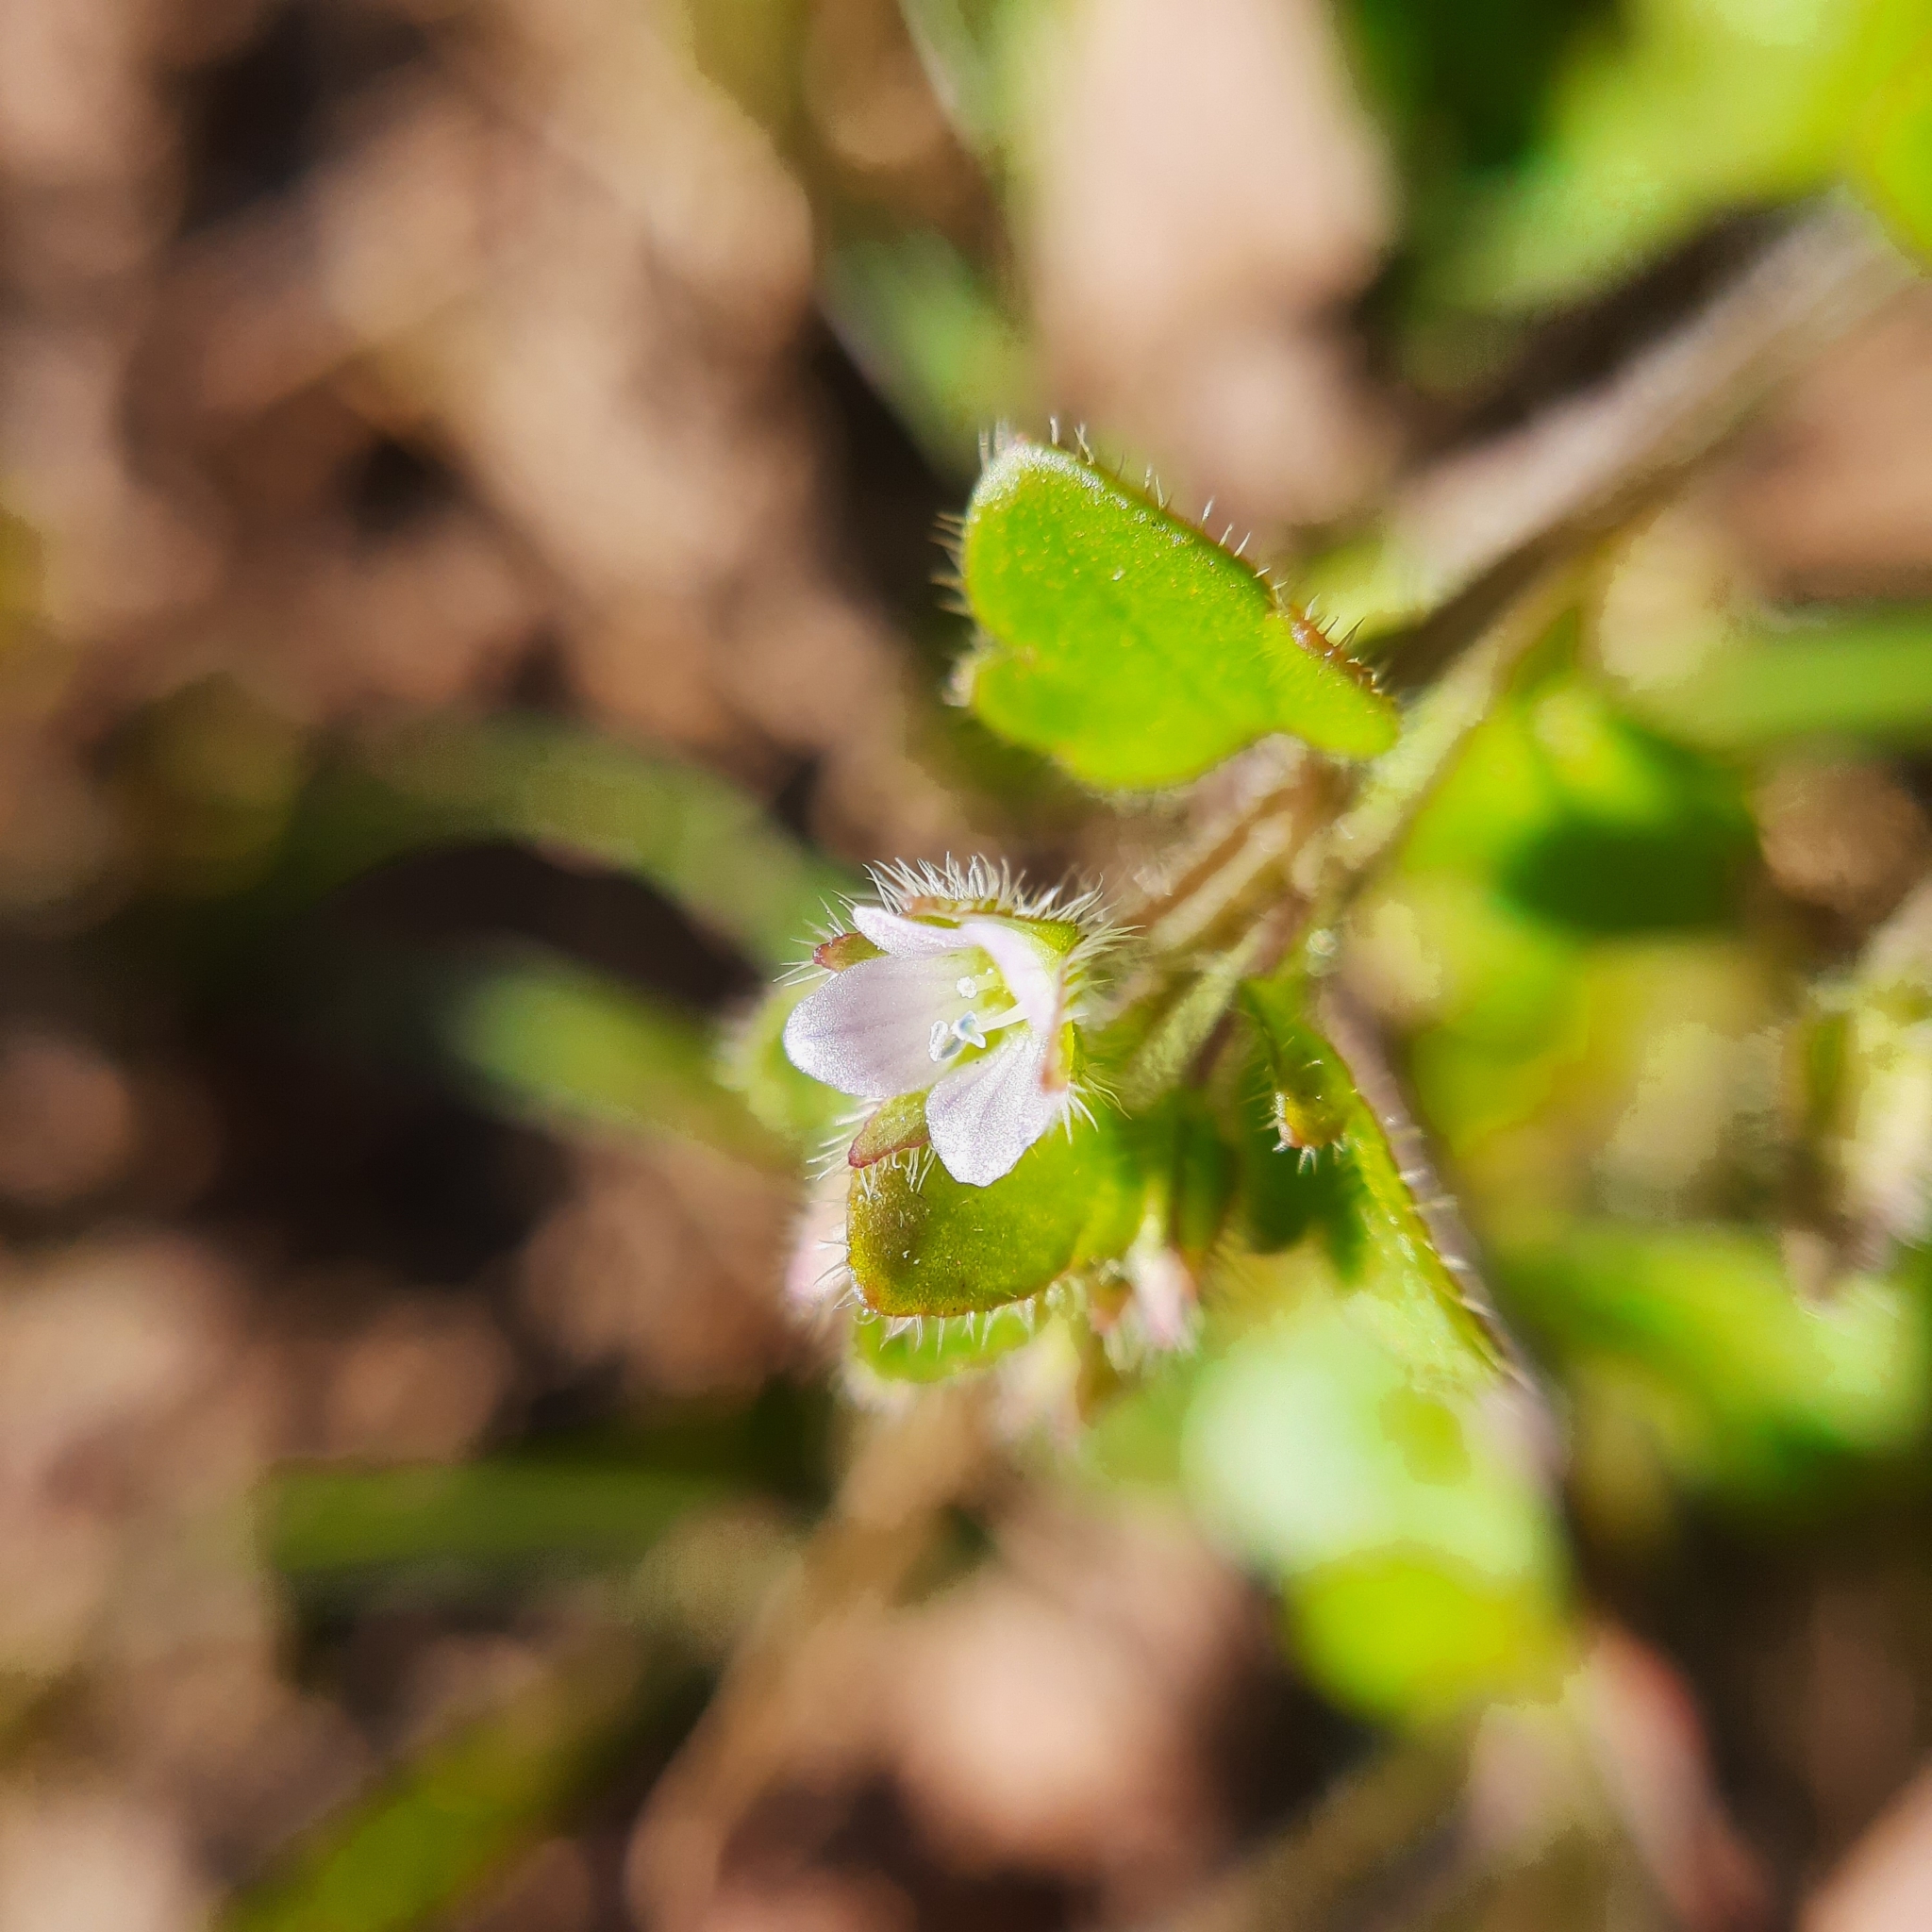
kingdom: Plantae
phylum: Tracheophyta
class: Magnoliopsida
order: Lamiales
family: Plantaginaceae
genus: Veronica
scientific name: Veronica sublobata
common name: False ivy-leaved speedwell
